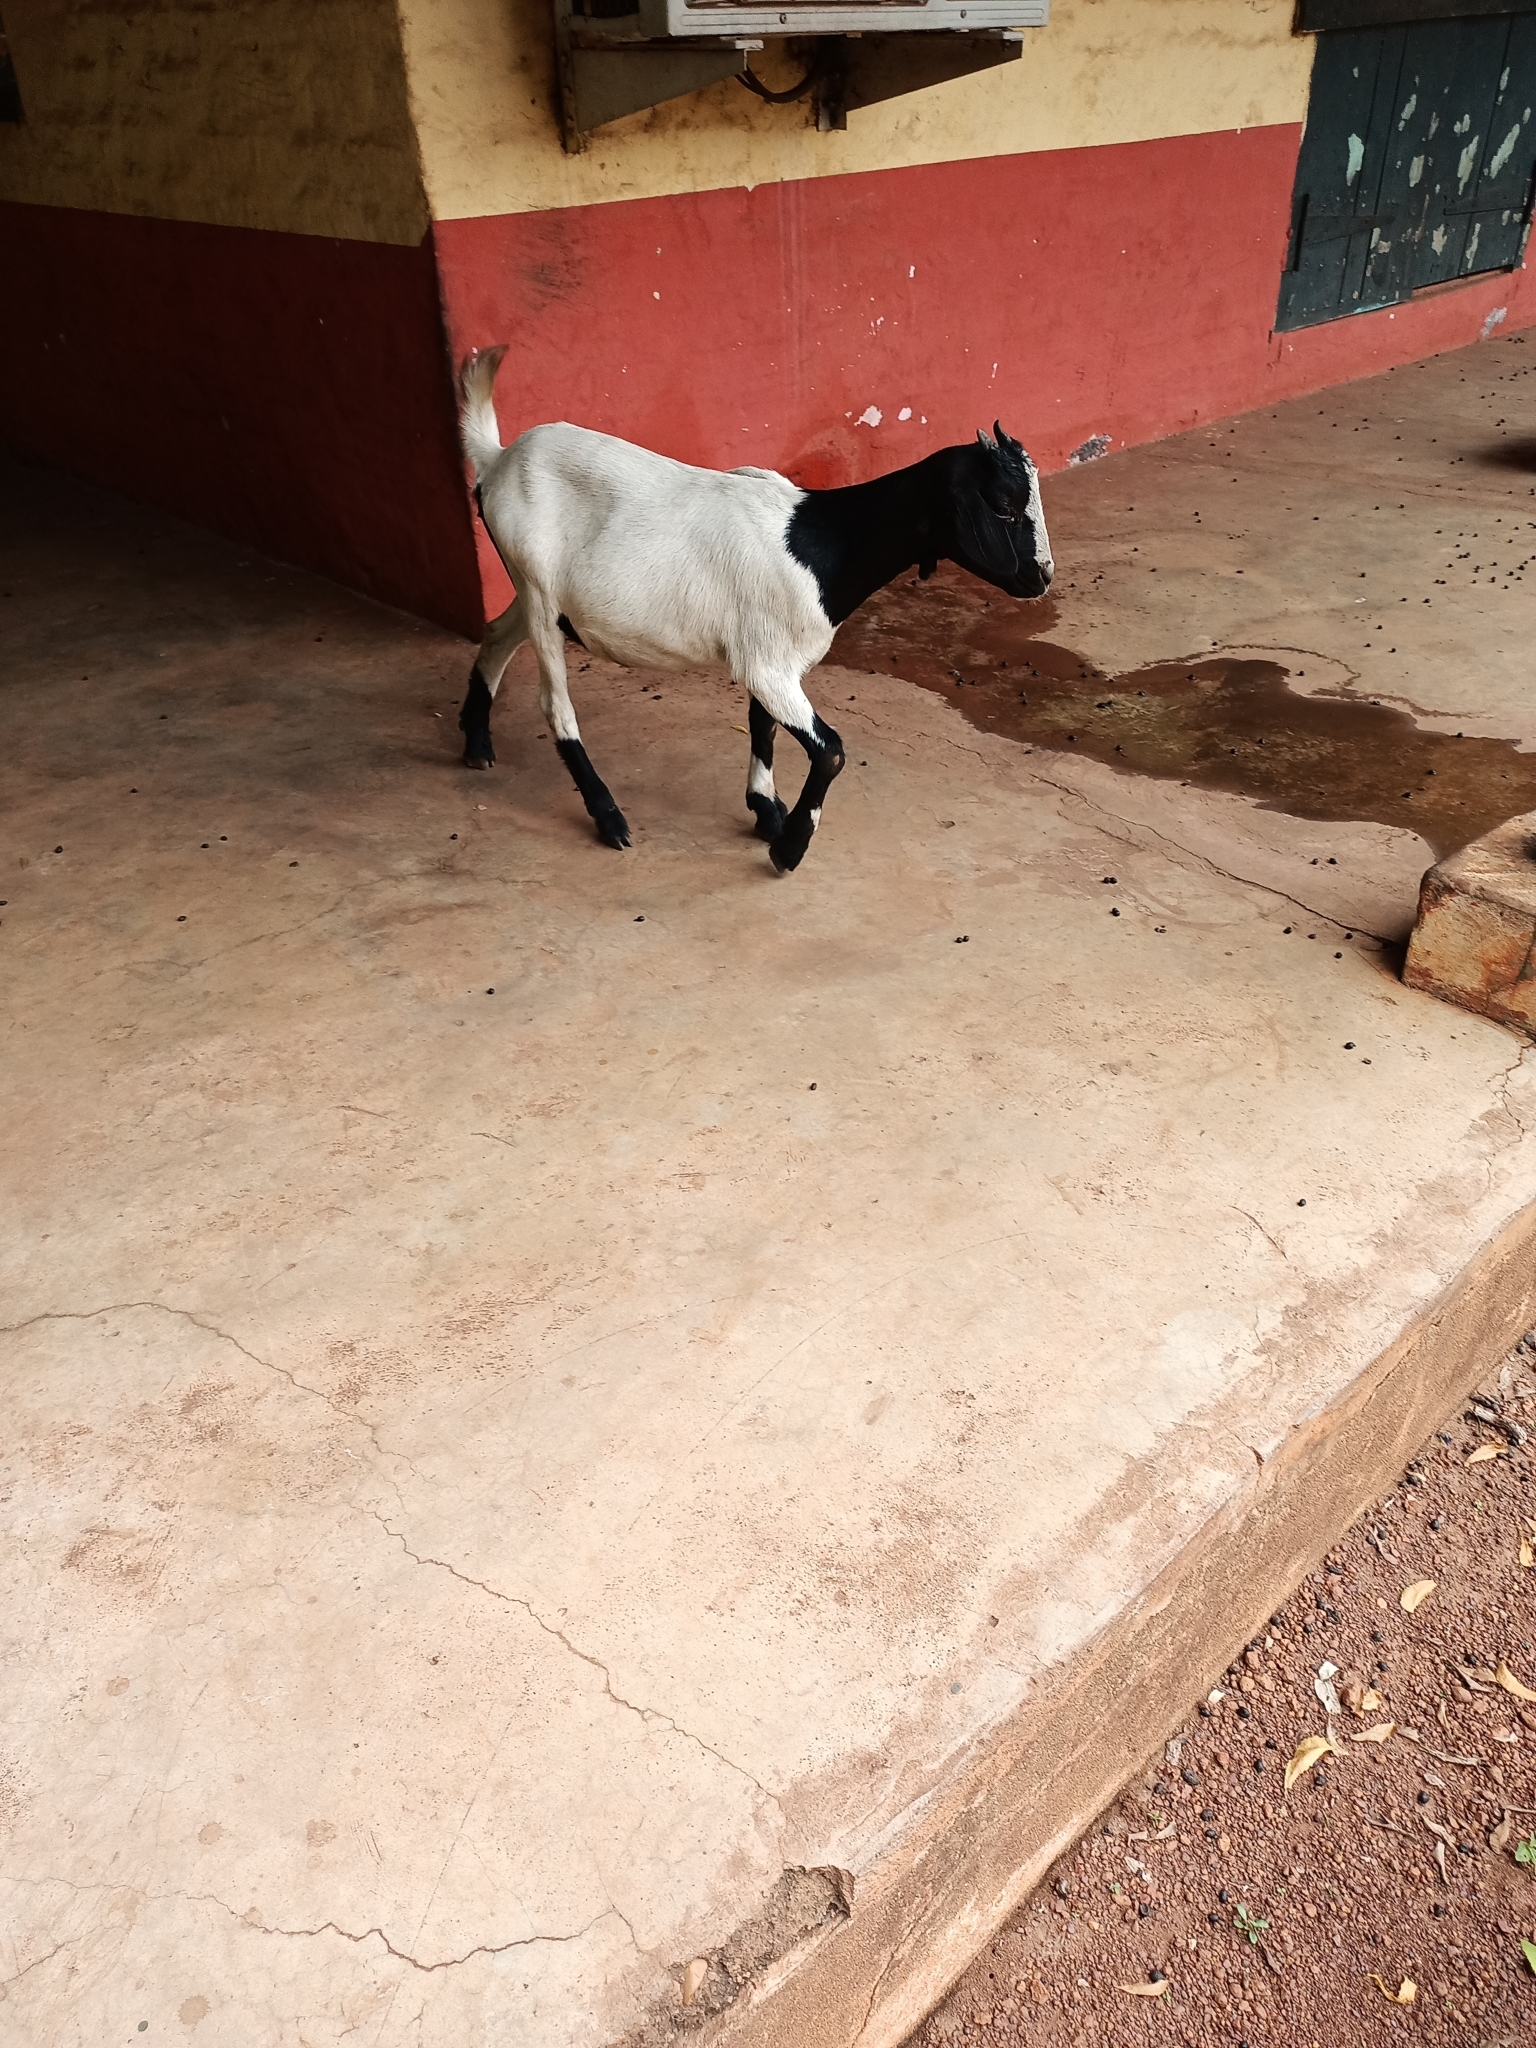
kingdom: Animalia
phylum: Chordata
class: Mammalia
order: Artiodactyla
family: Bovidae
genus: Capra
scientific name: Capra hircus
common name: Domestic goat
